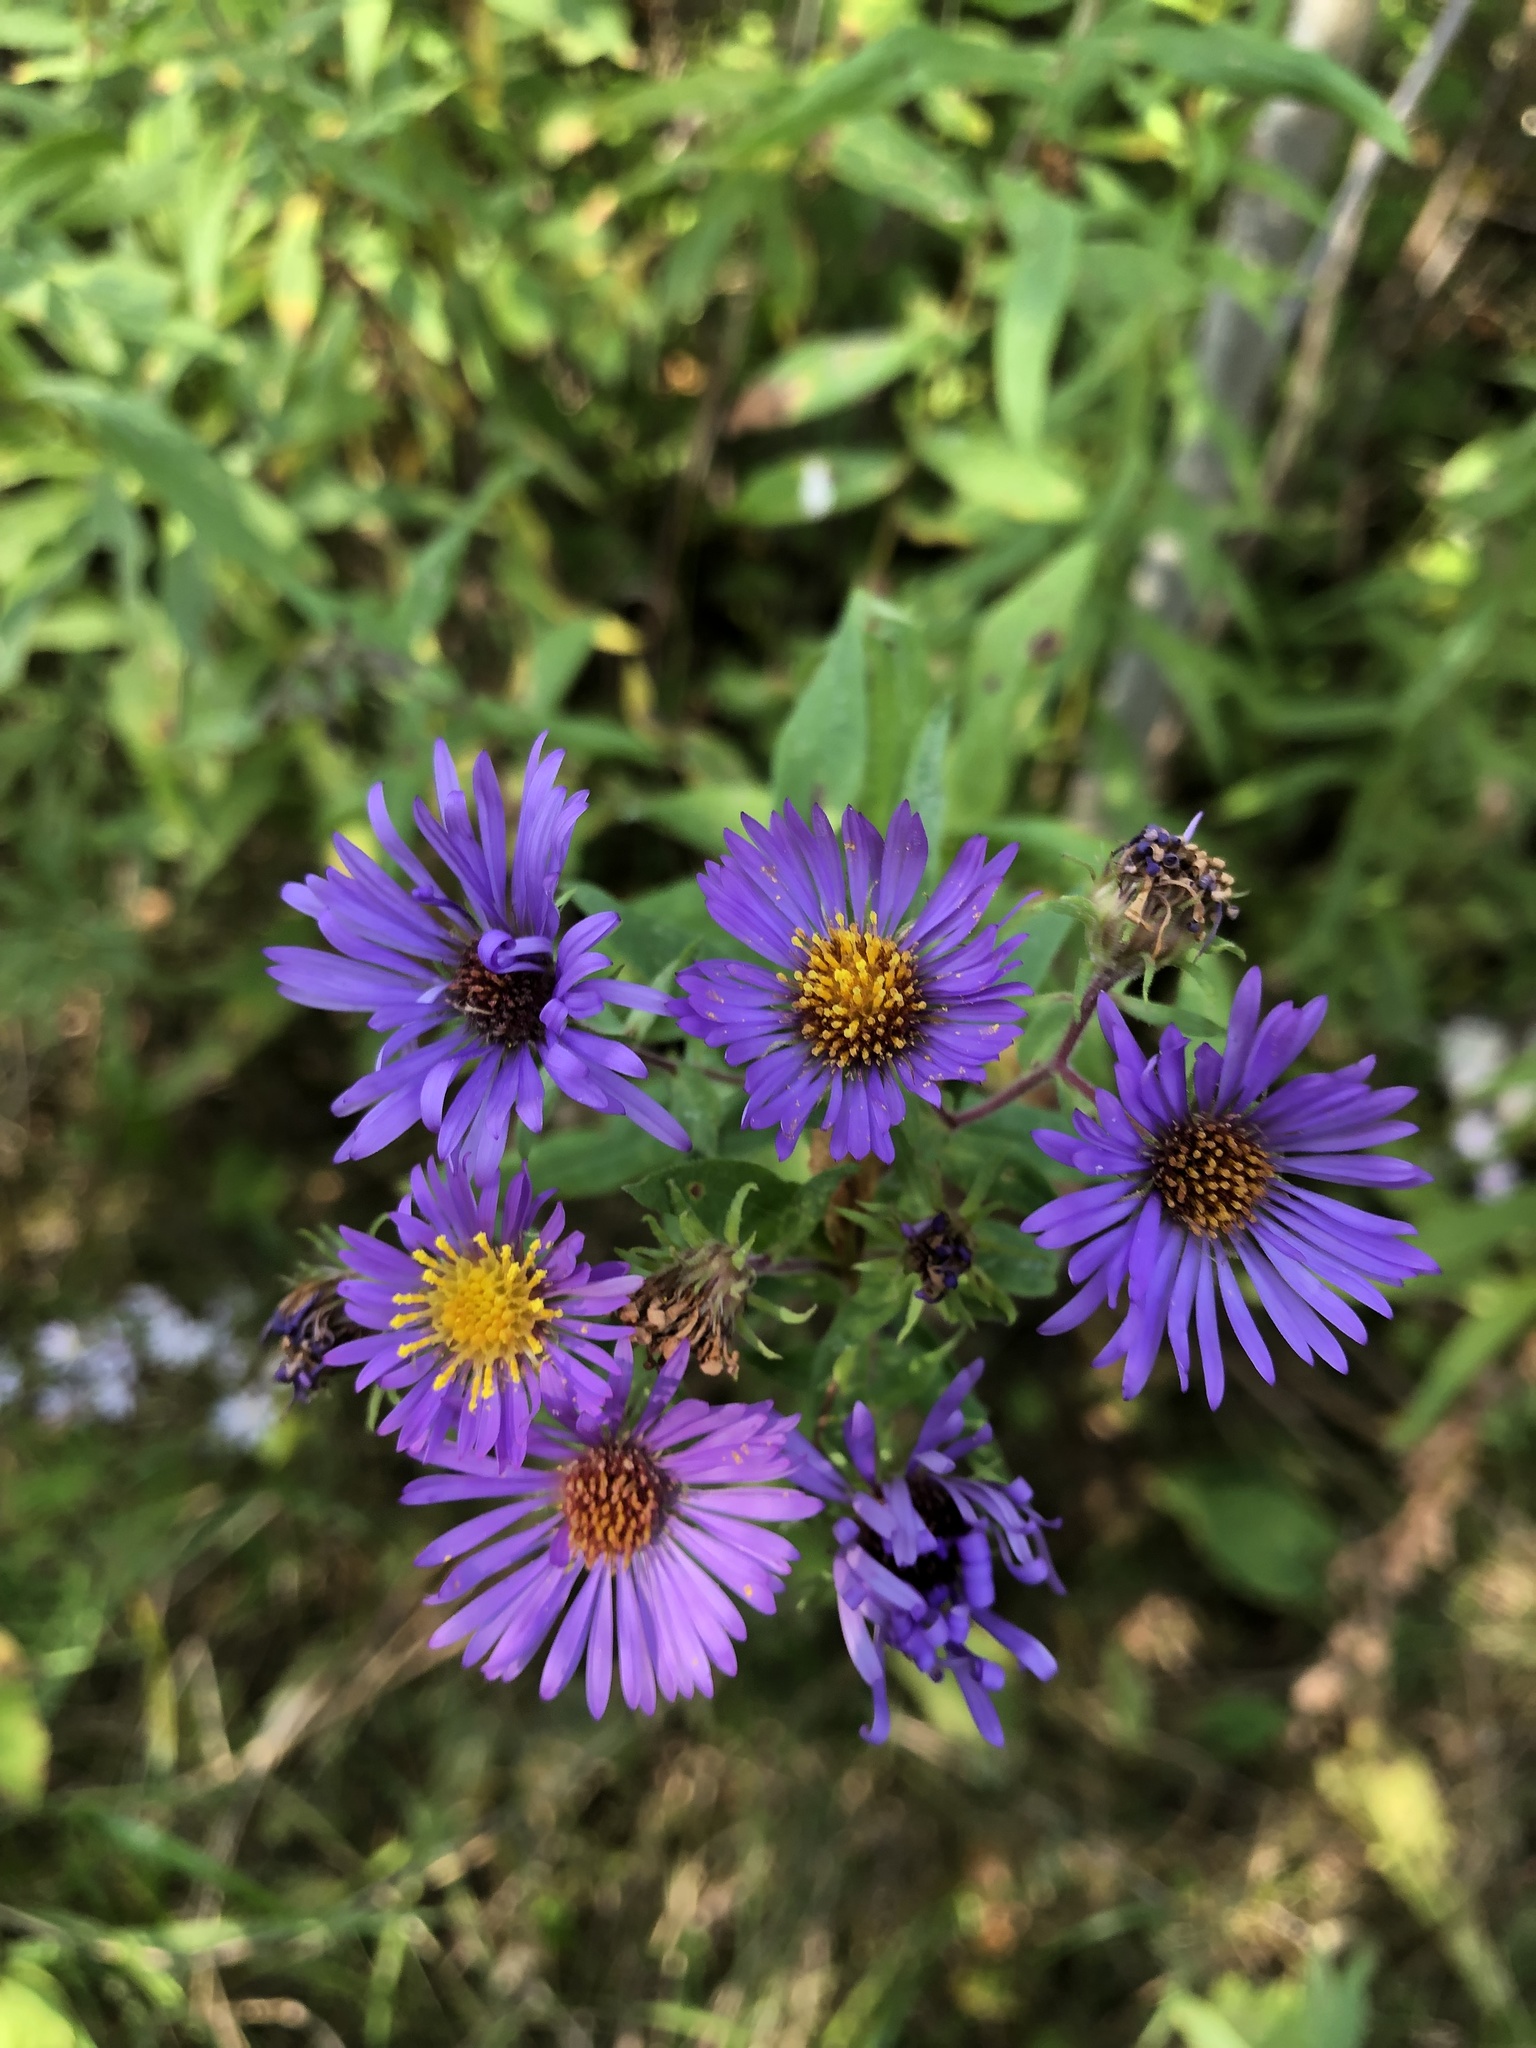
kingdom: Plantae
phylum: Tracheophyta
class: Magnoliopsida
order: Asterales
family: Asteraceae
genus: Symphyotrichum
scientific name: Symphyotrichum novae-angliae
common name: Michaelmas daisy
